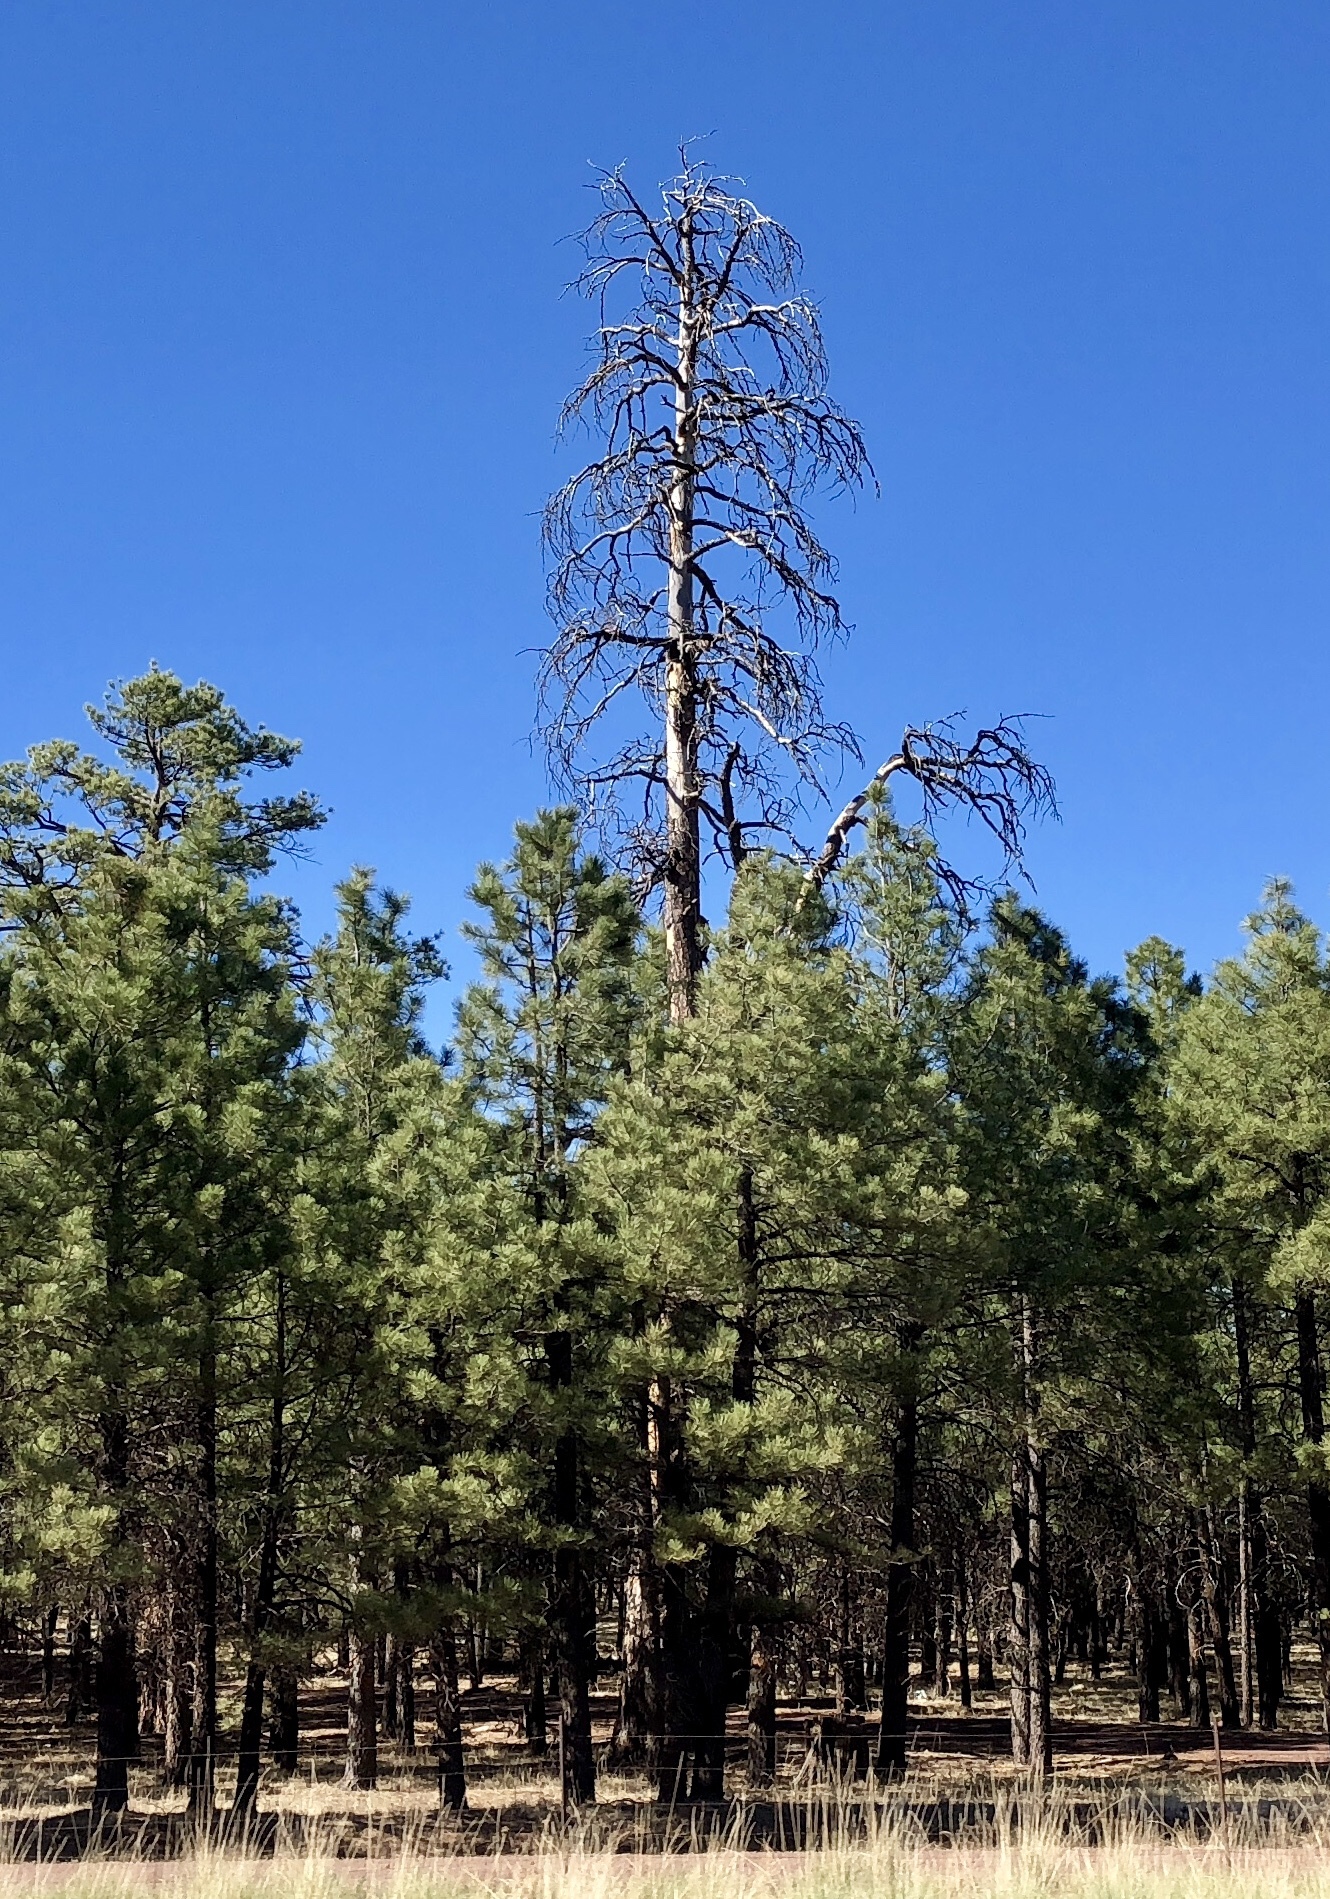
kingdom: Plantae
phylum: Tracheophyta
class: Pinopsida
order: Pinales
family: Pinaceae
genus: Pinus
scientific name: Pinus ponderosa
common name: Western yellow-pine
